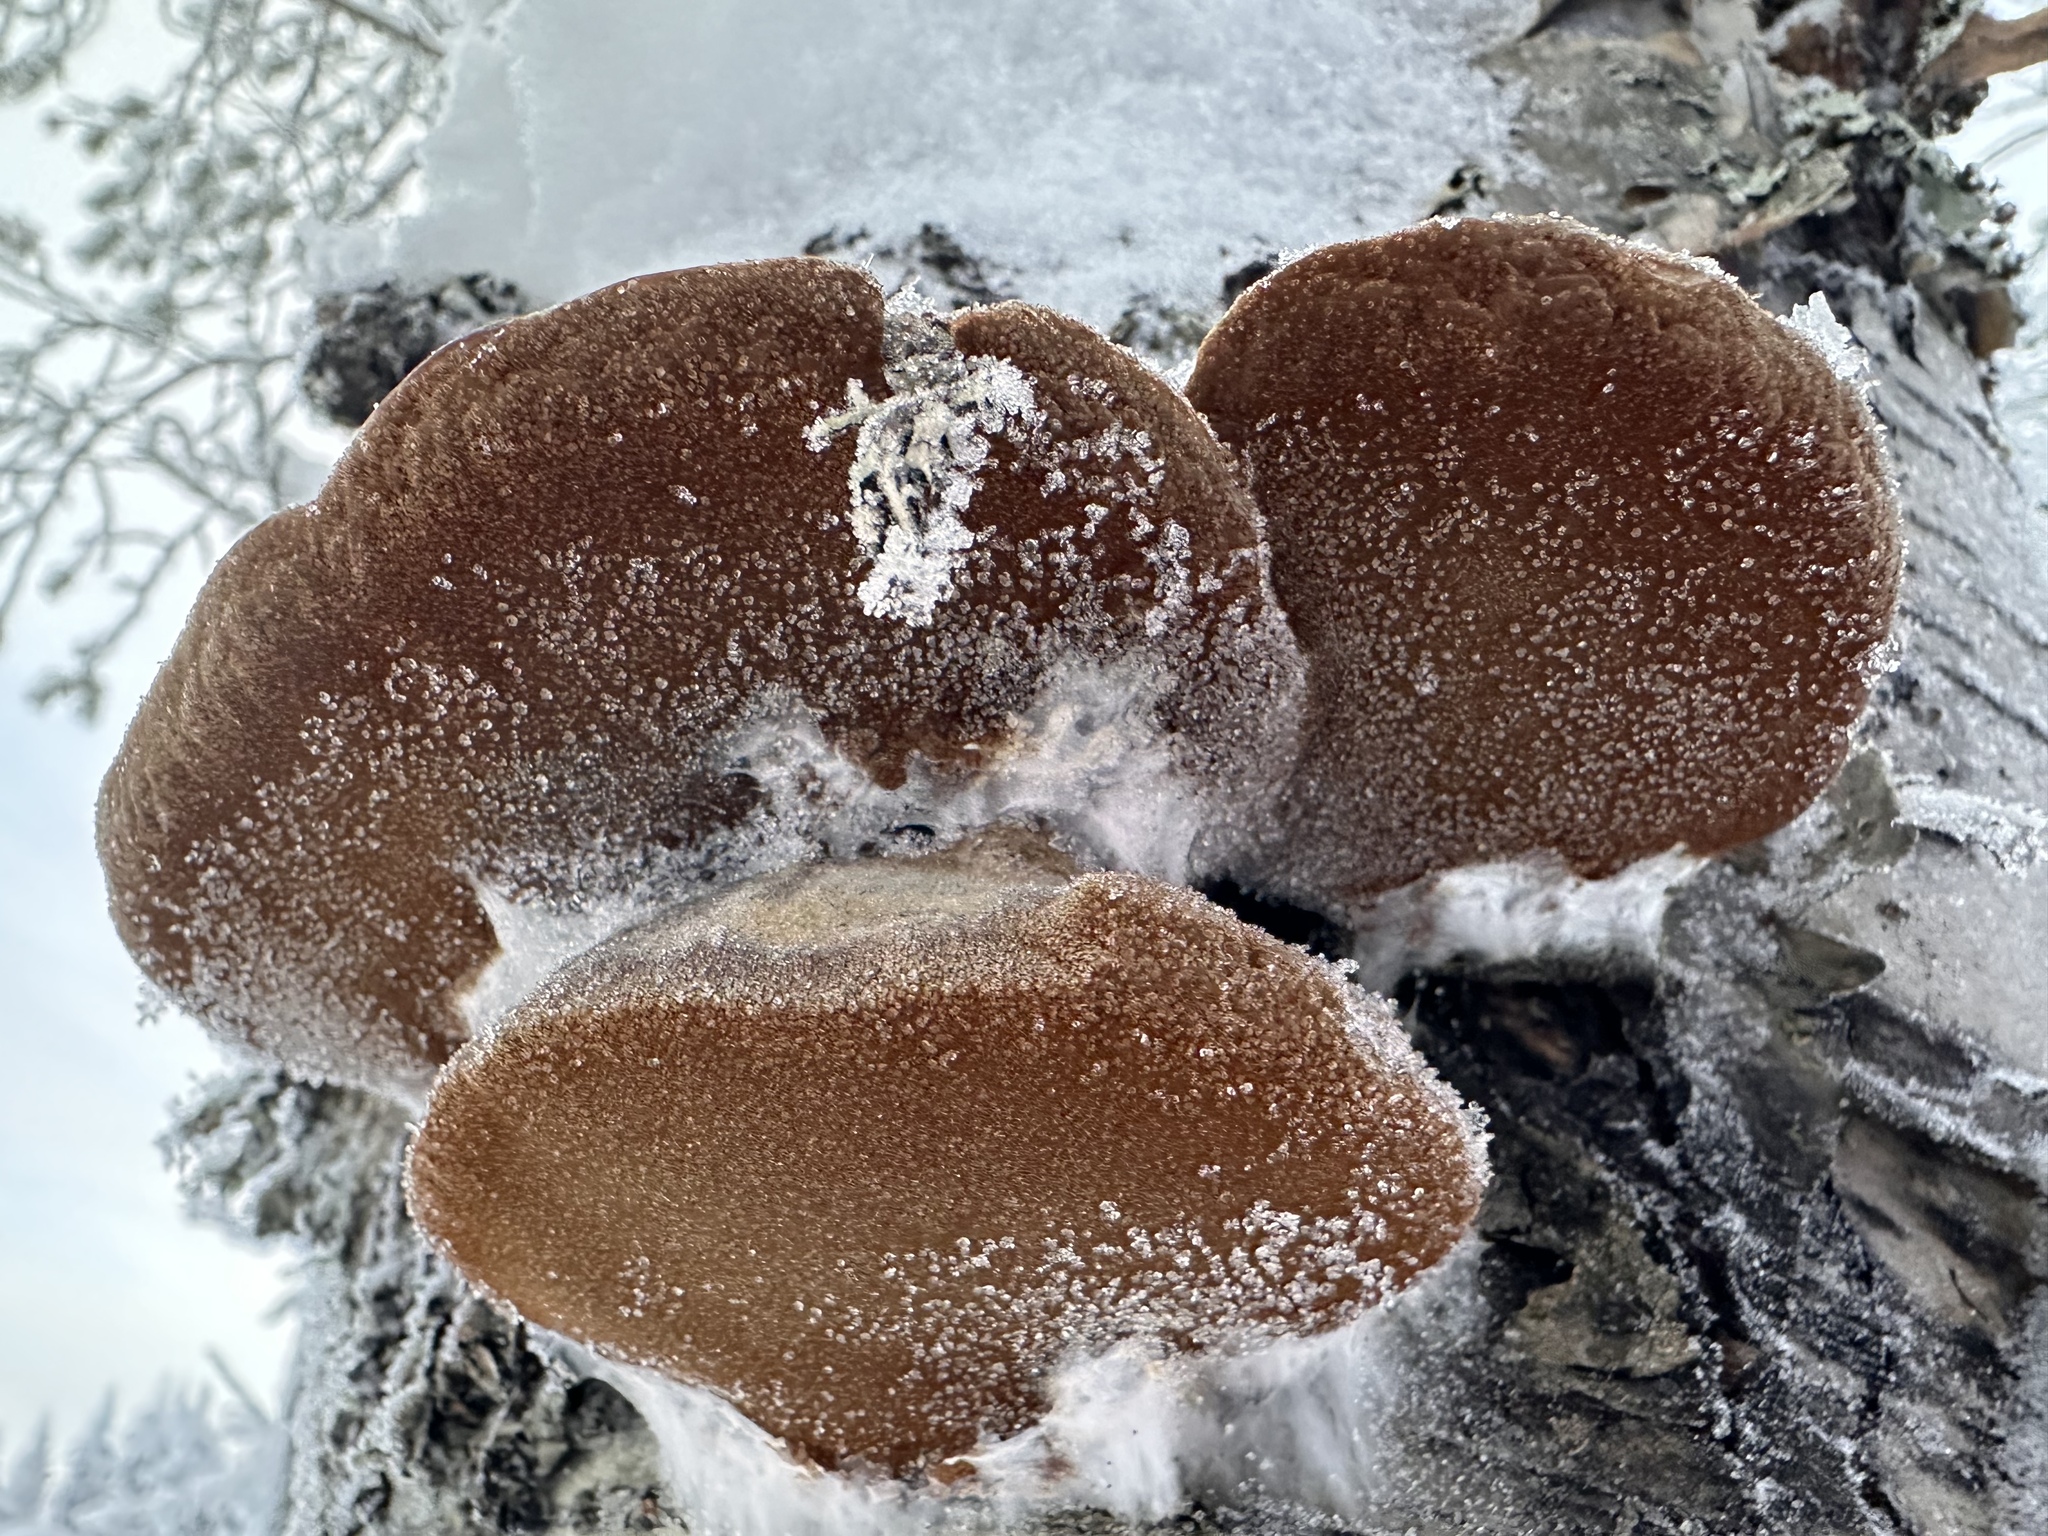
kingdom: Fungi
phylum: Basidiomycota
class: Agaricomycetes
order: Hymenochaetales
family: Hymenochaetaceae
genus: Phellinus
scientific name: Phellinus igniarius
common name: Willow bracket
